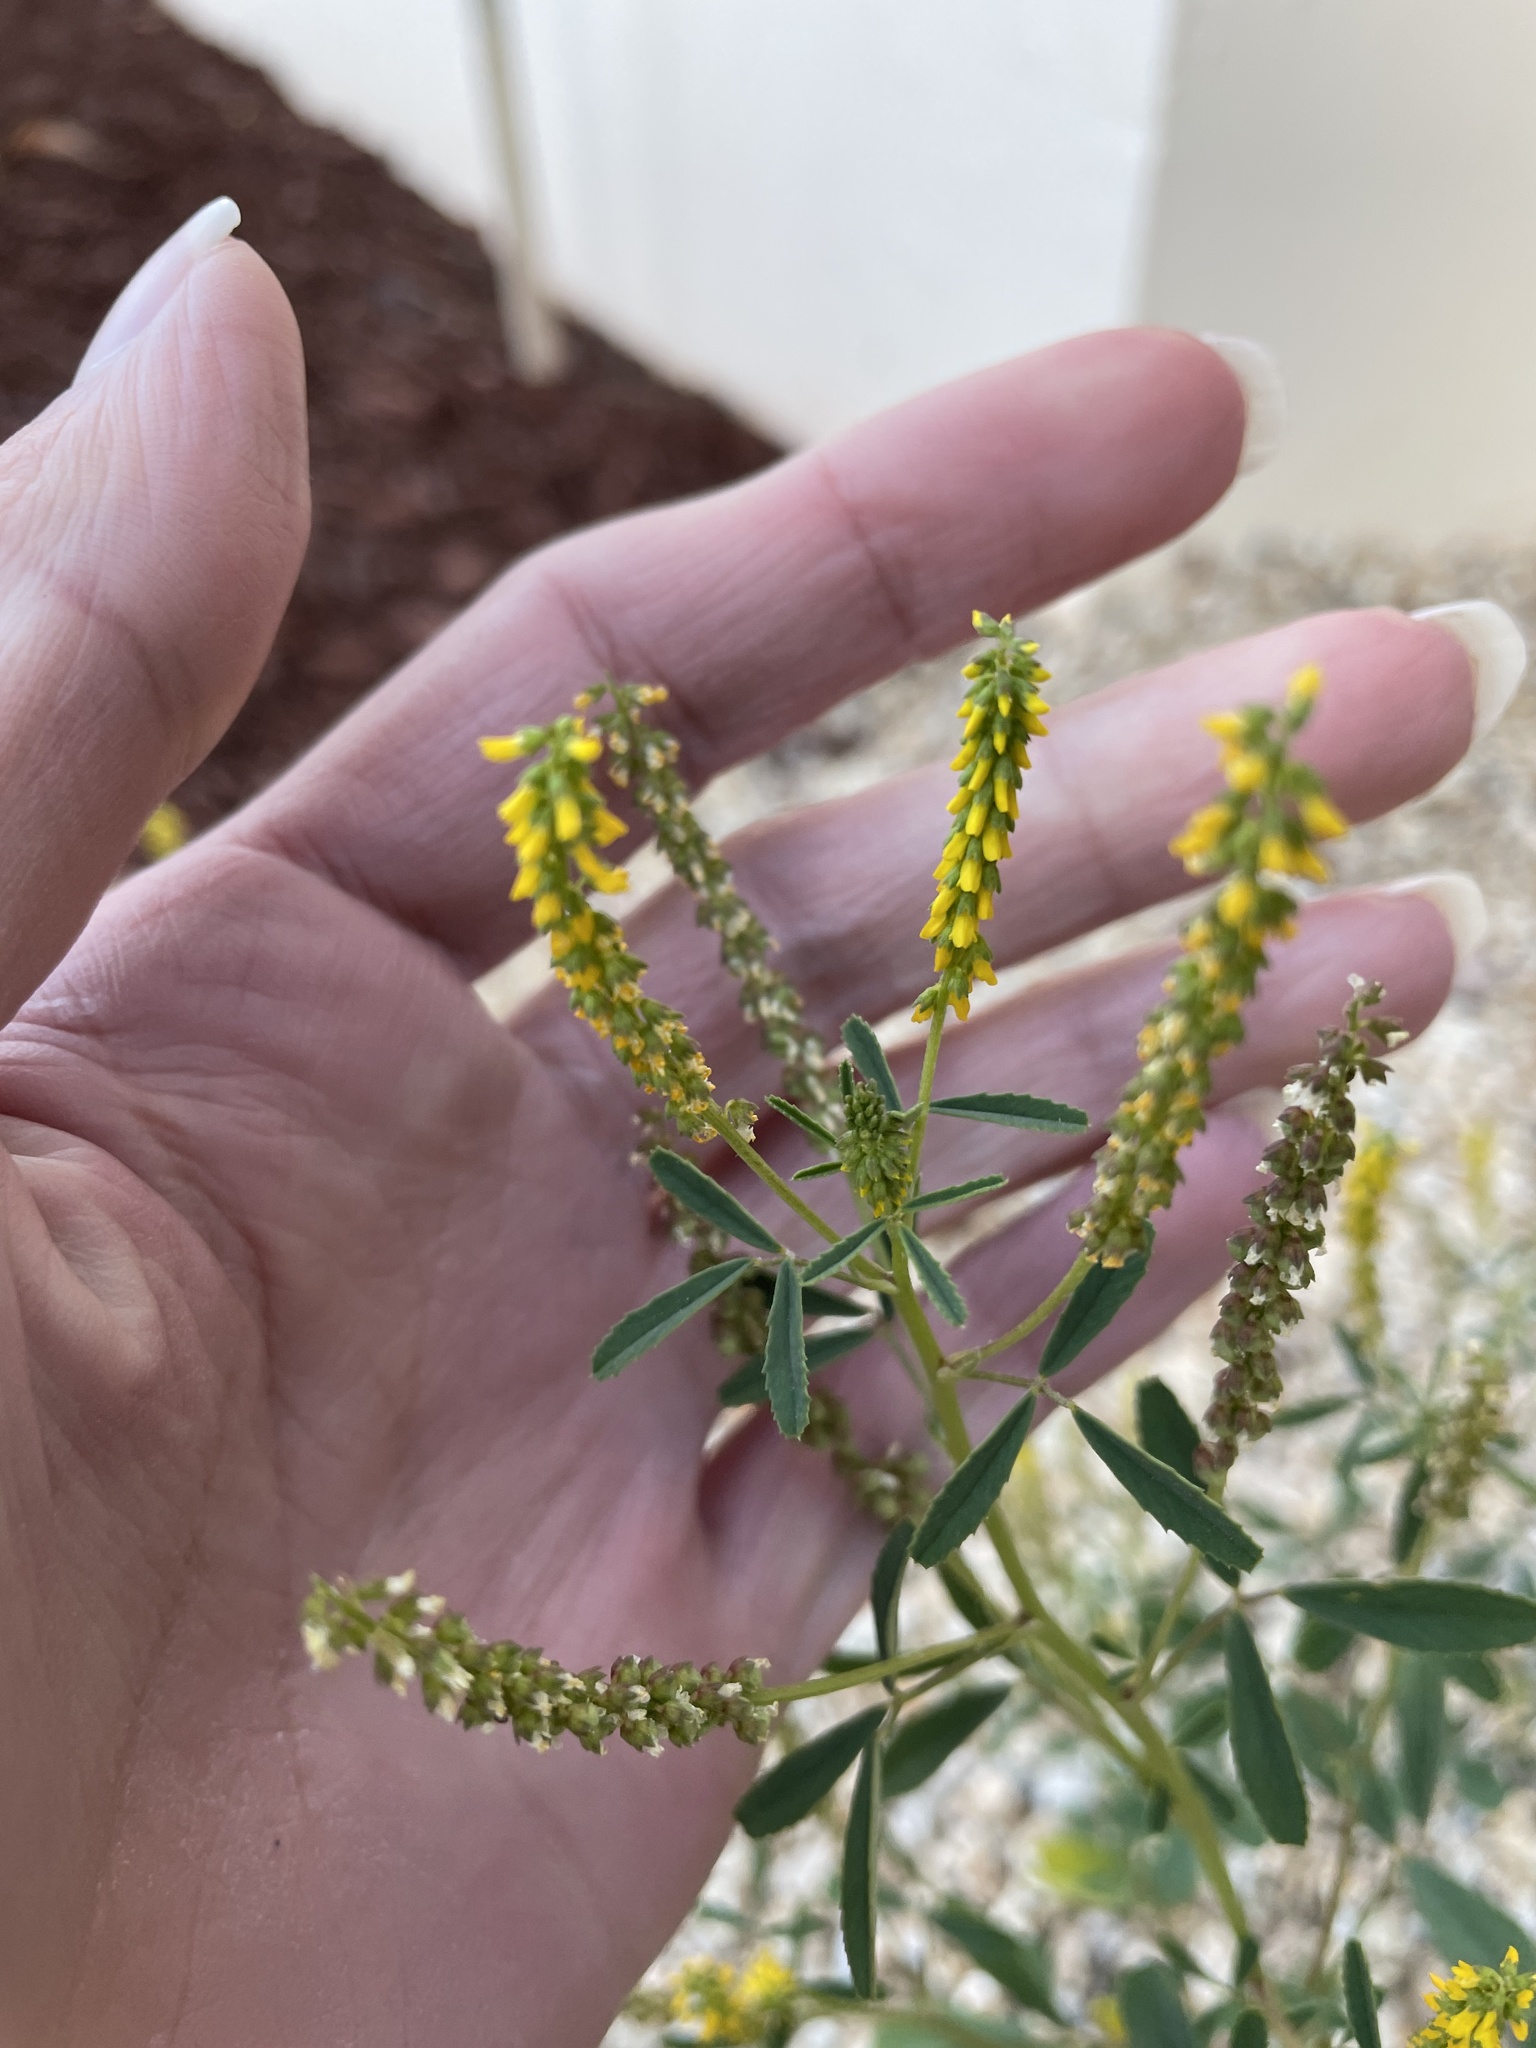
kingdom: Plantae
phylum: Tracheophyta
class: Magnoliopsida
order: Fabales
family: Fabaceae
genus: Melilotus
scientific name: Melilotus indicus
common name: Small melilot
